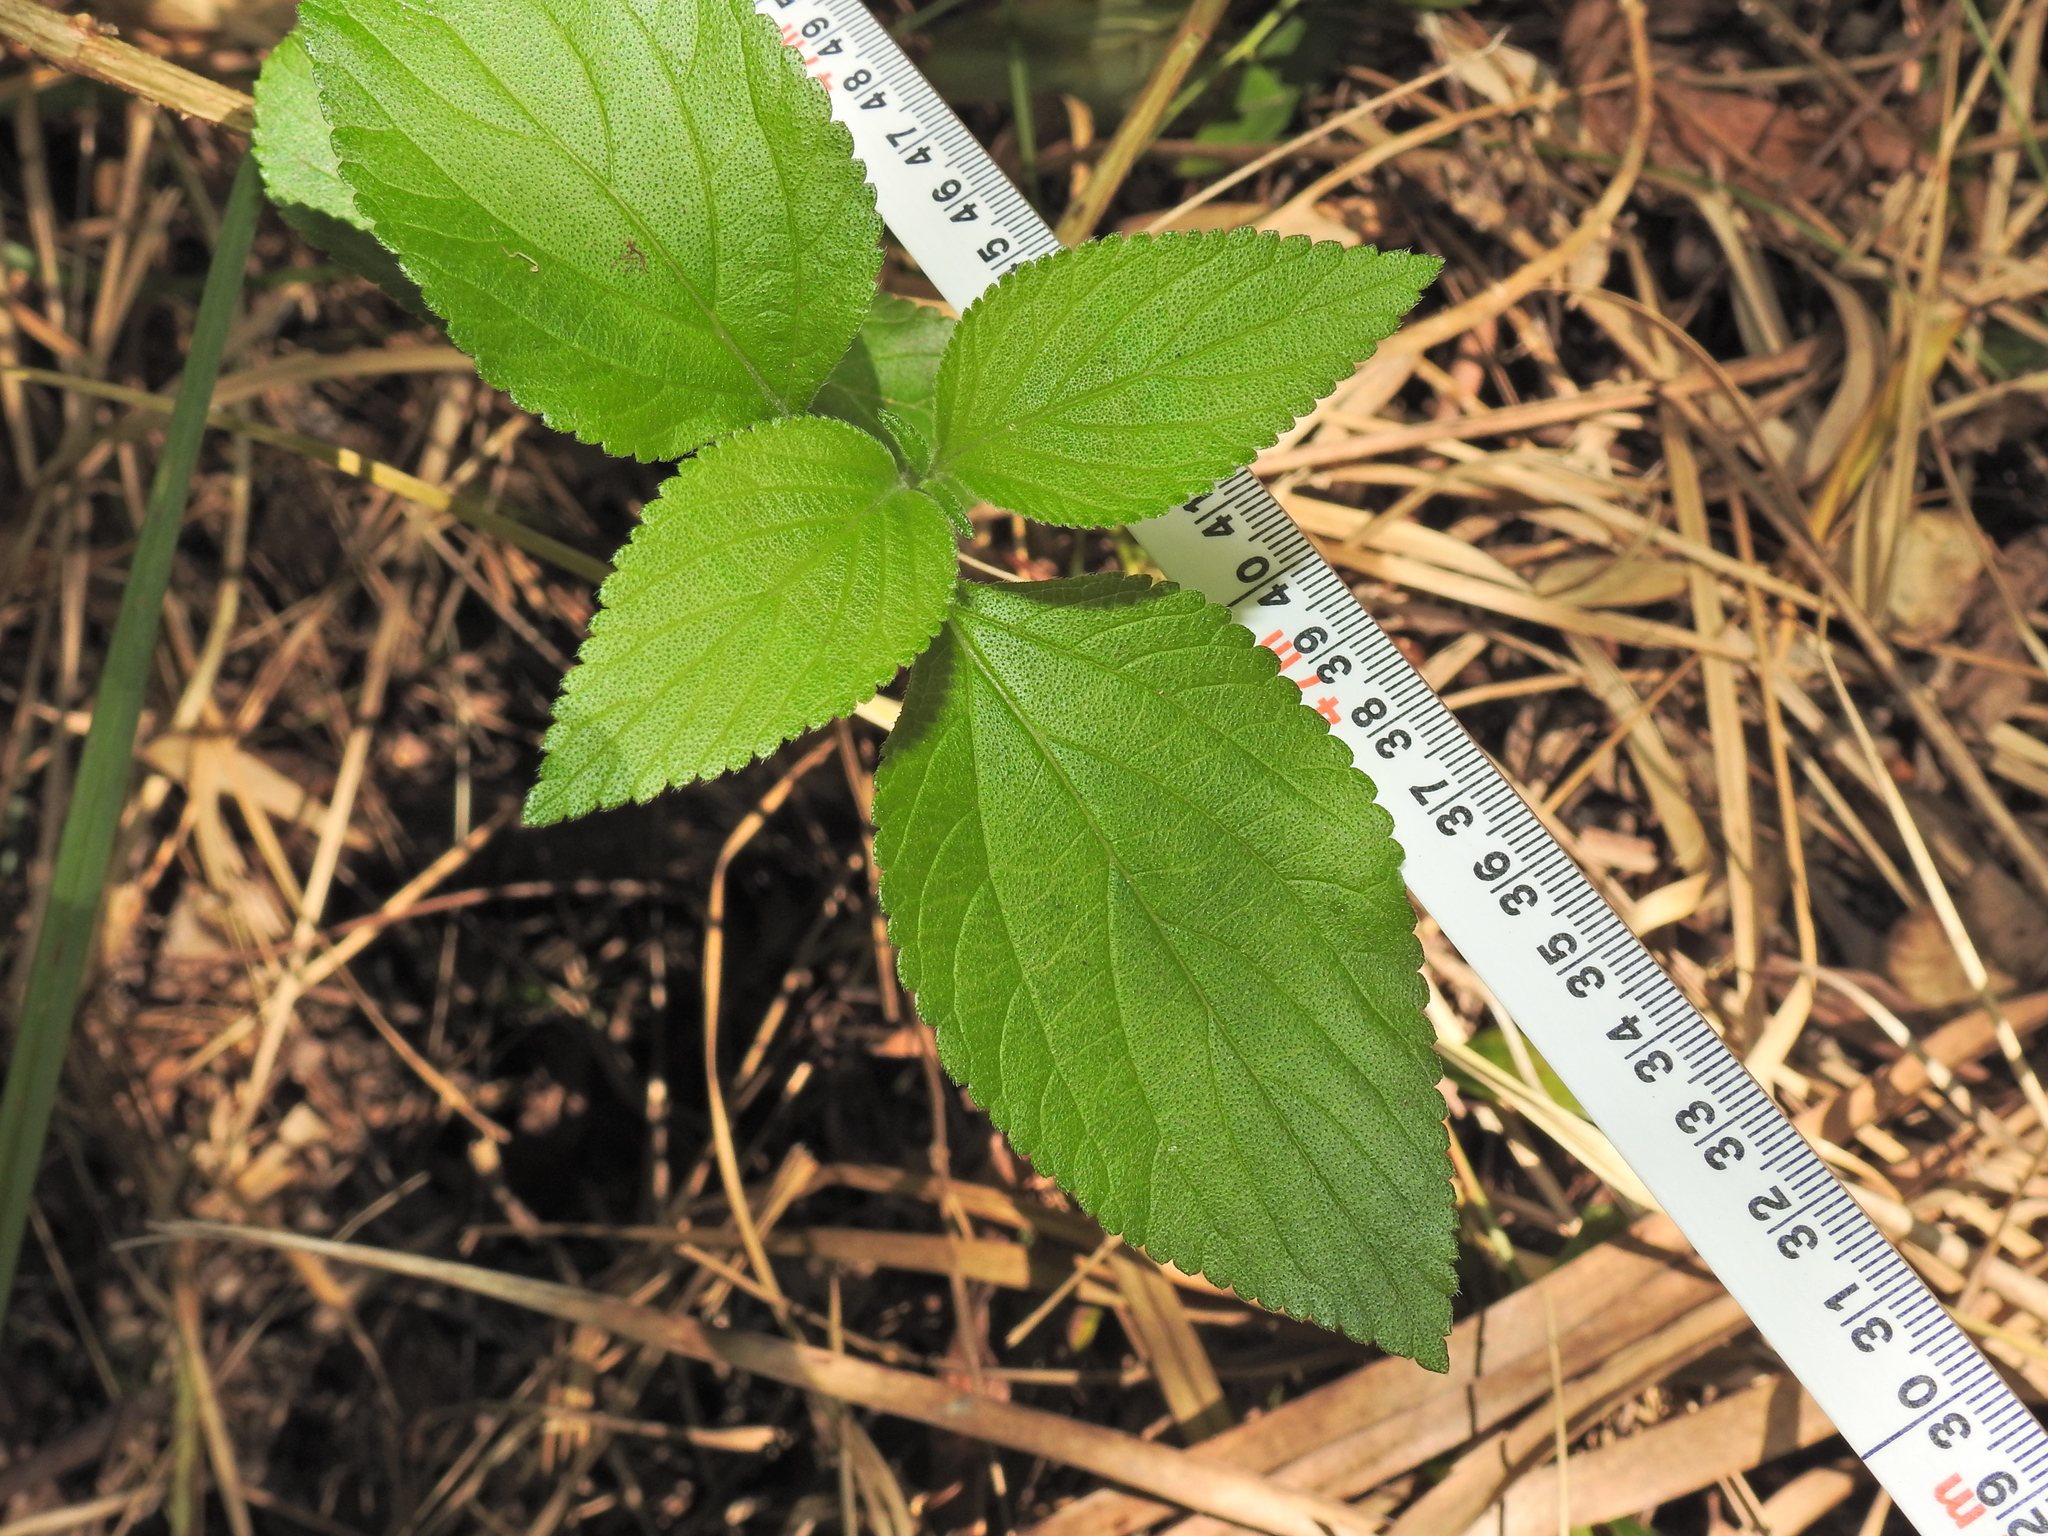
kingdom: Plantae
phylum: Tracheophyta
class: Magnoliopsida
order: Lamiales
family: Verbenaceae
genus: Lantana
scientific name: Lantana camara
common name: Lantana
